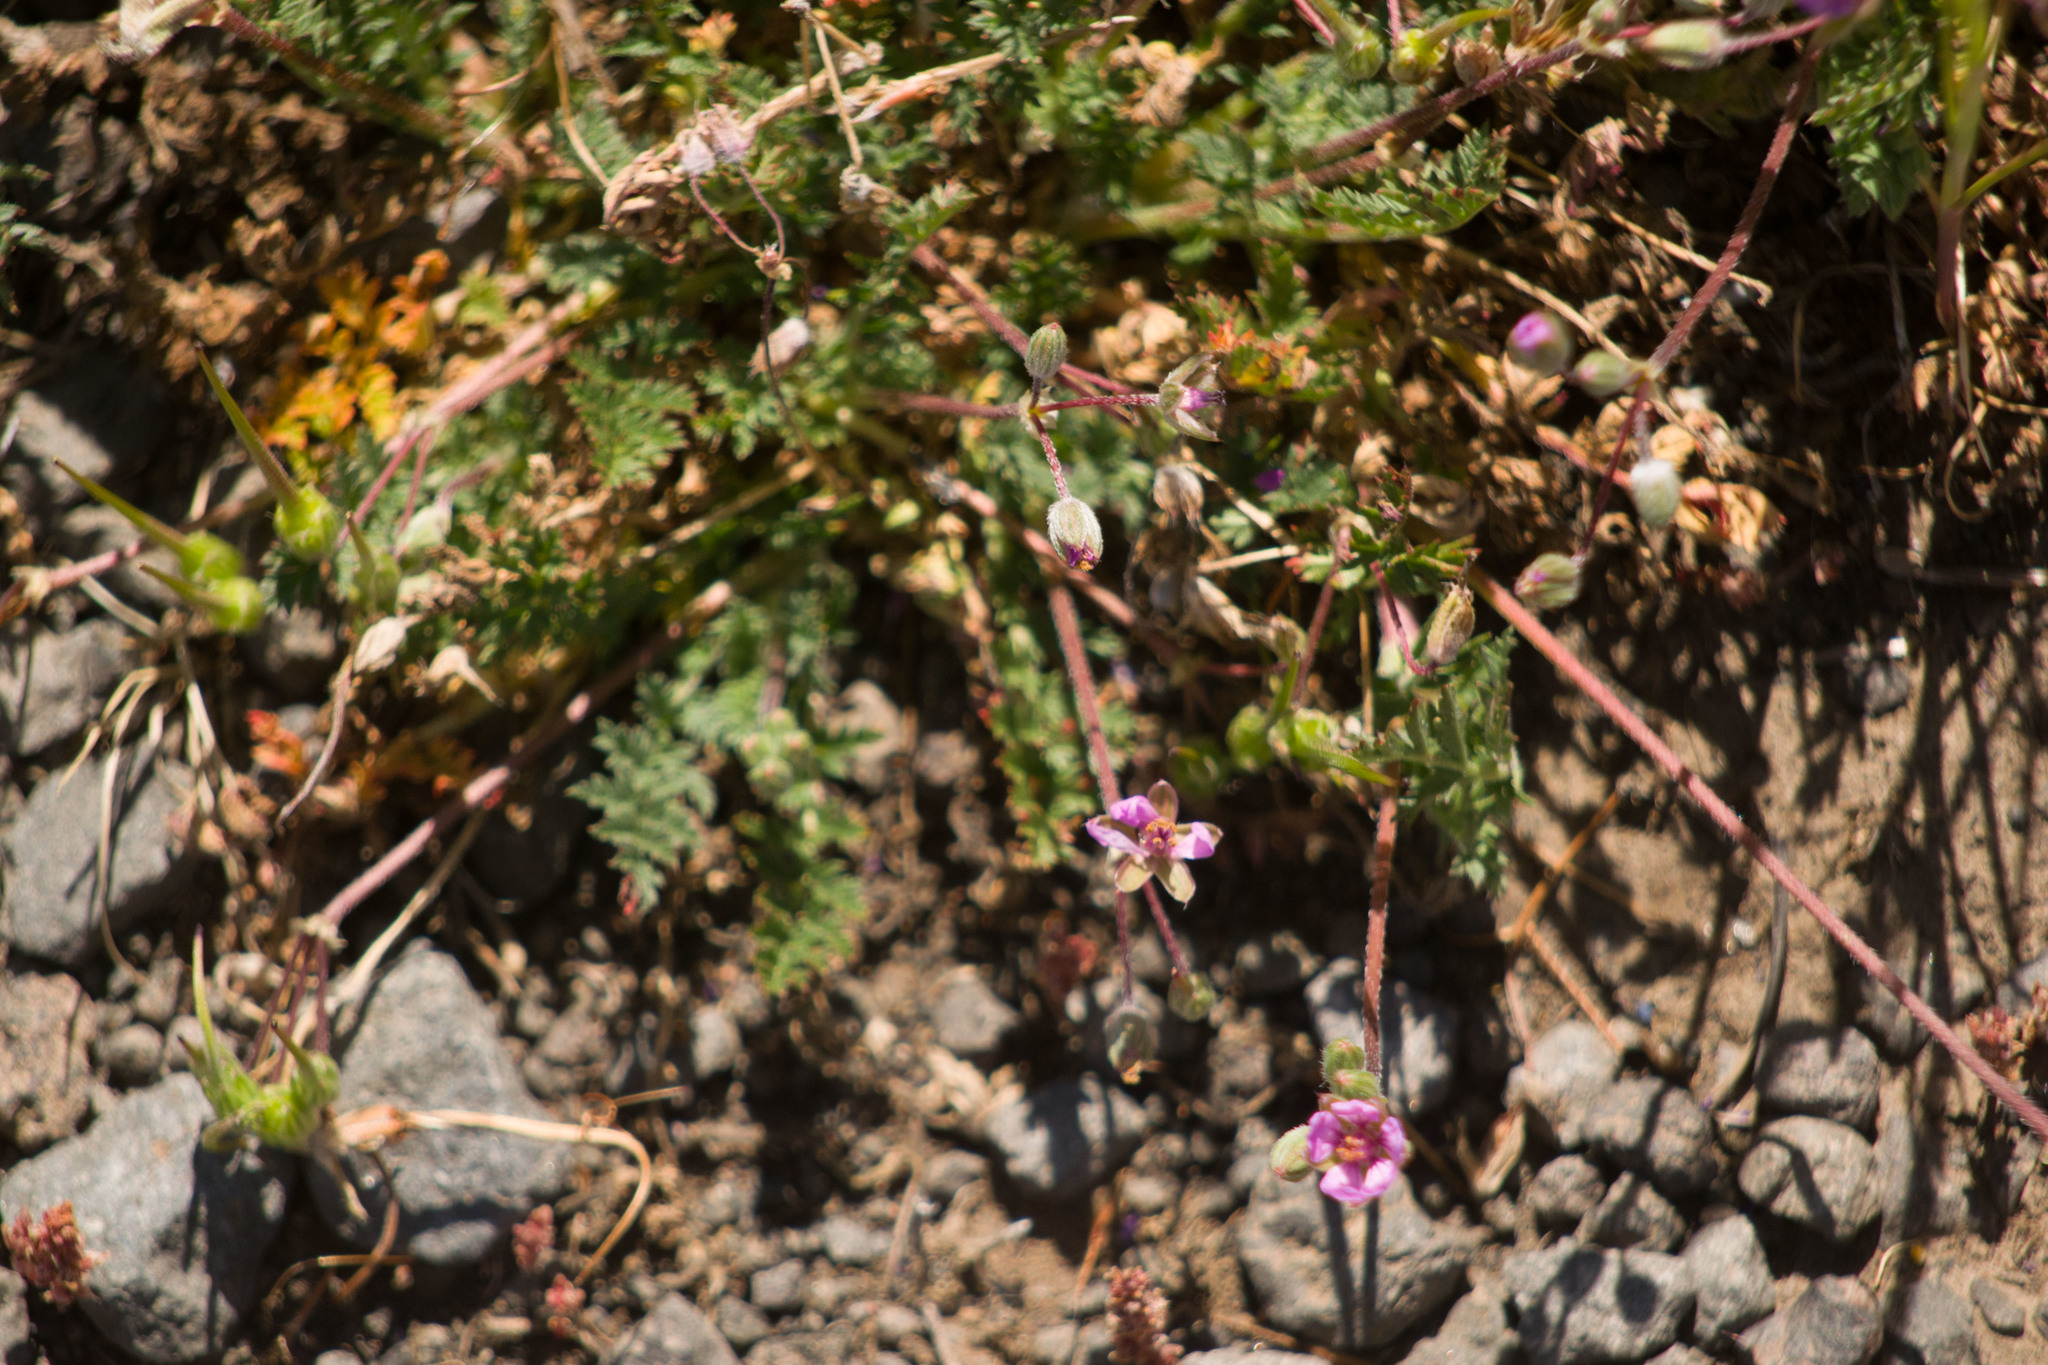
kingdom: Plantae
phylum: Tracheophyta
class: Magnoliopsida
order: Geraniales
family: Geraniaceae
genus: Erodium
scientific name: Erodium cicutarium
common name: Common stork's-bill
